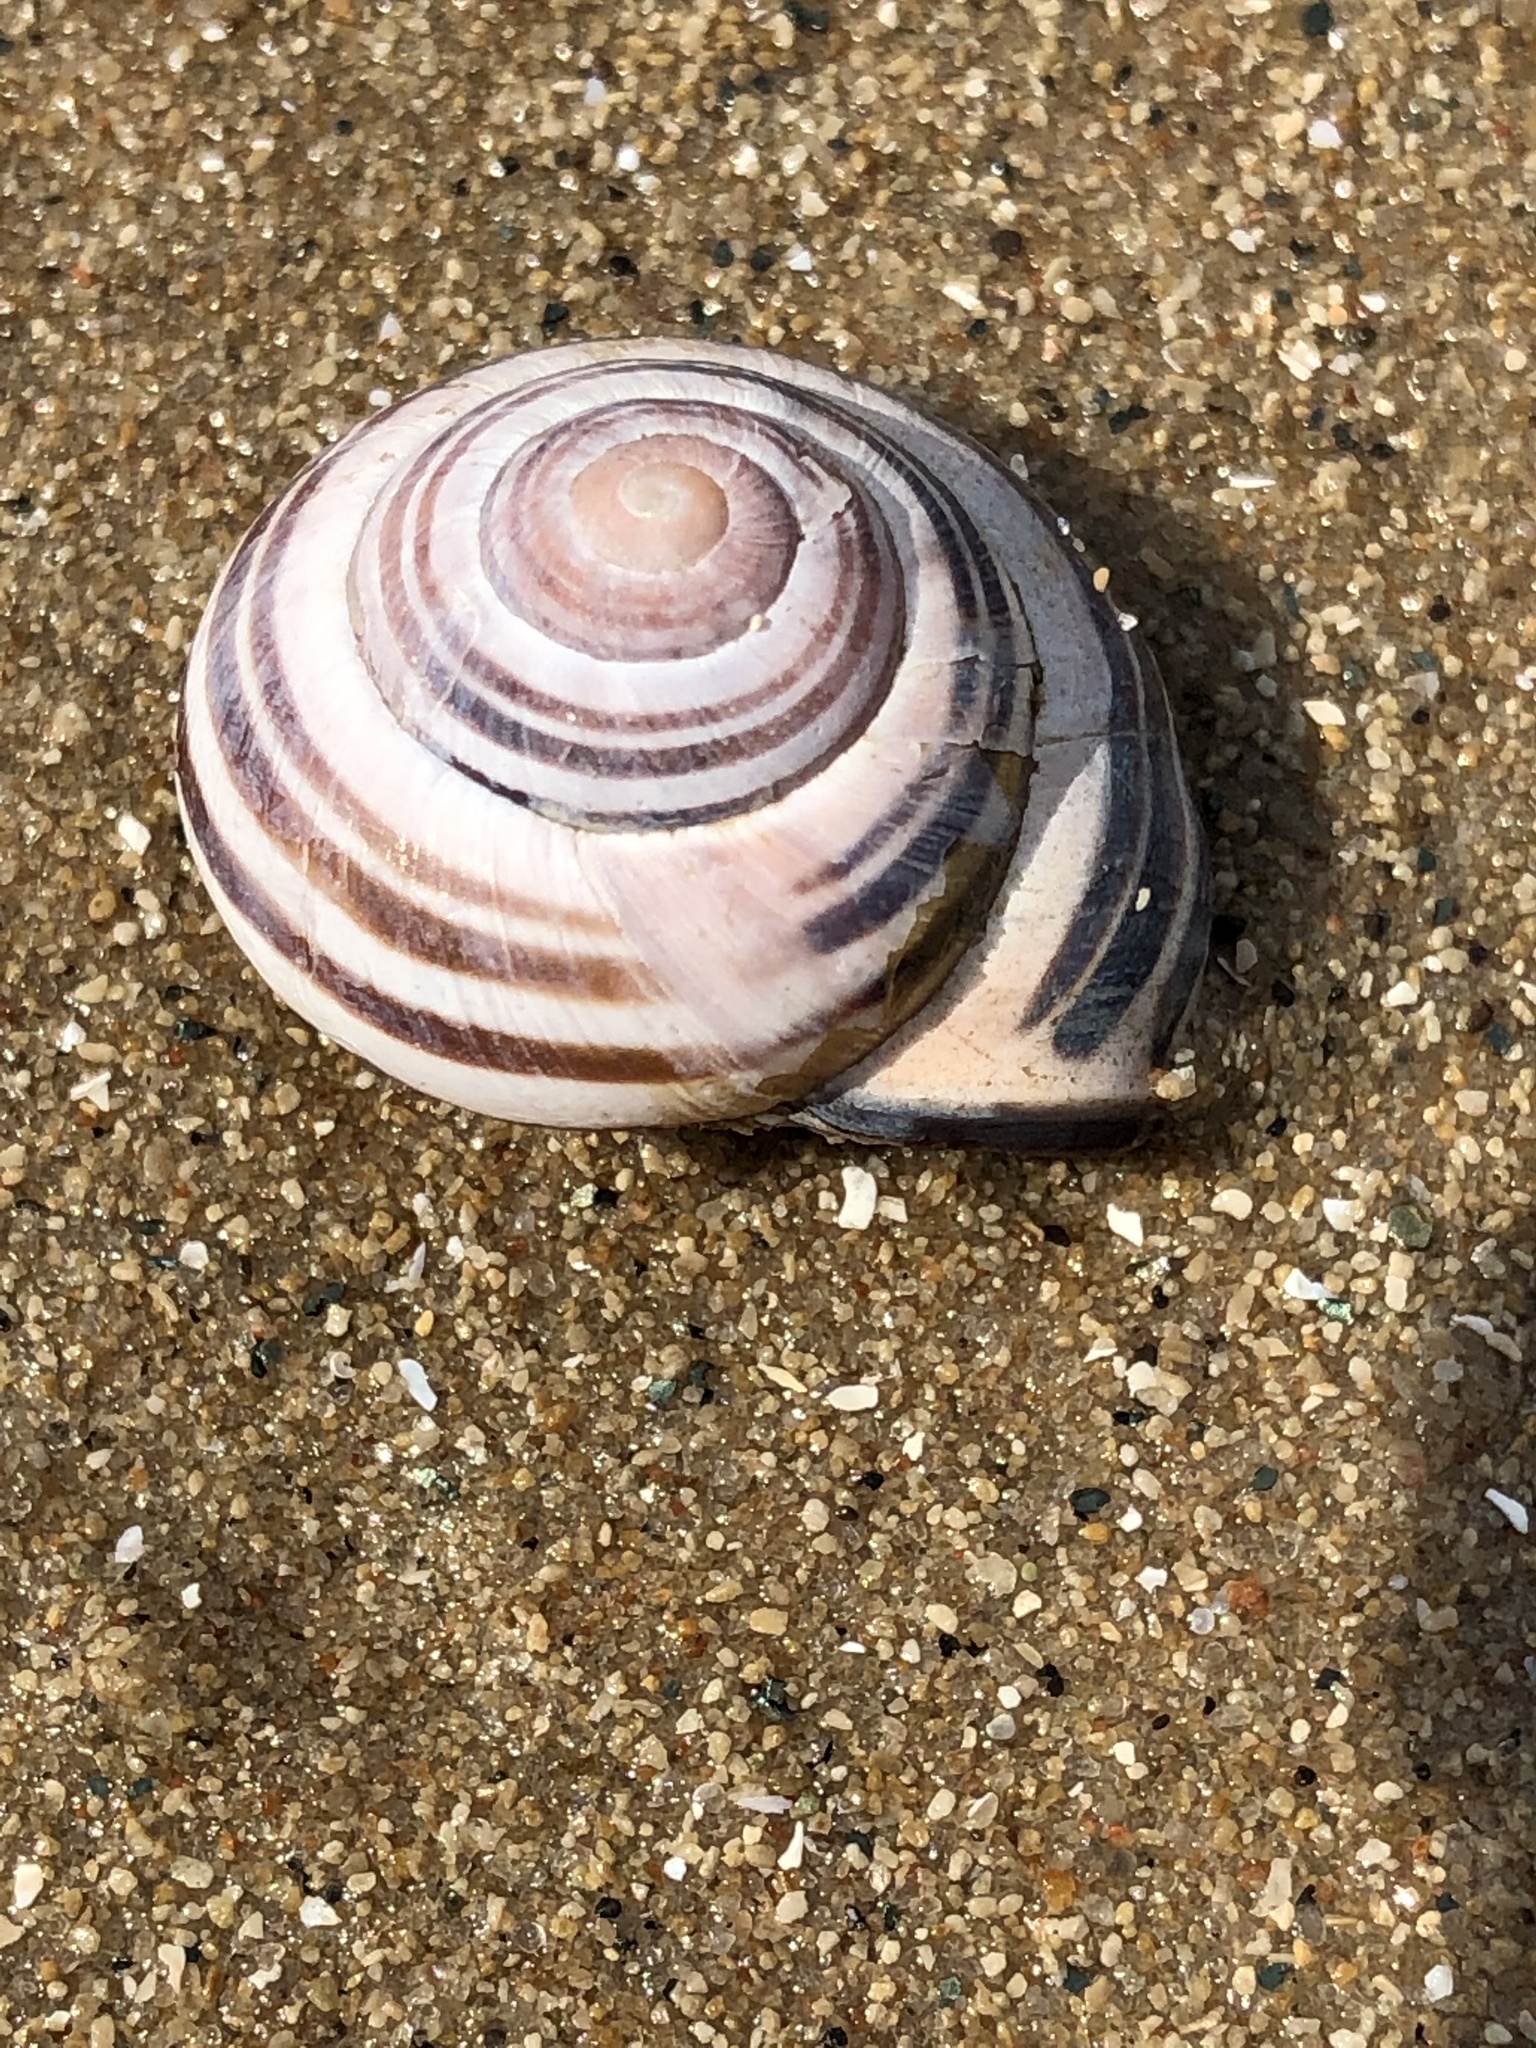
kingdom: Animalia
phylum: Mollusca
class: Gastropoda
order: Stylommatophora
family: Helicidae
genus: Cepaea
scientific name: Cepaea nemoralis
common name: Grovesnail
